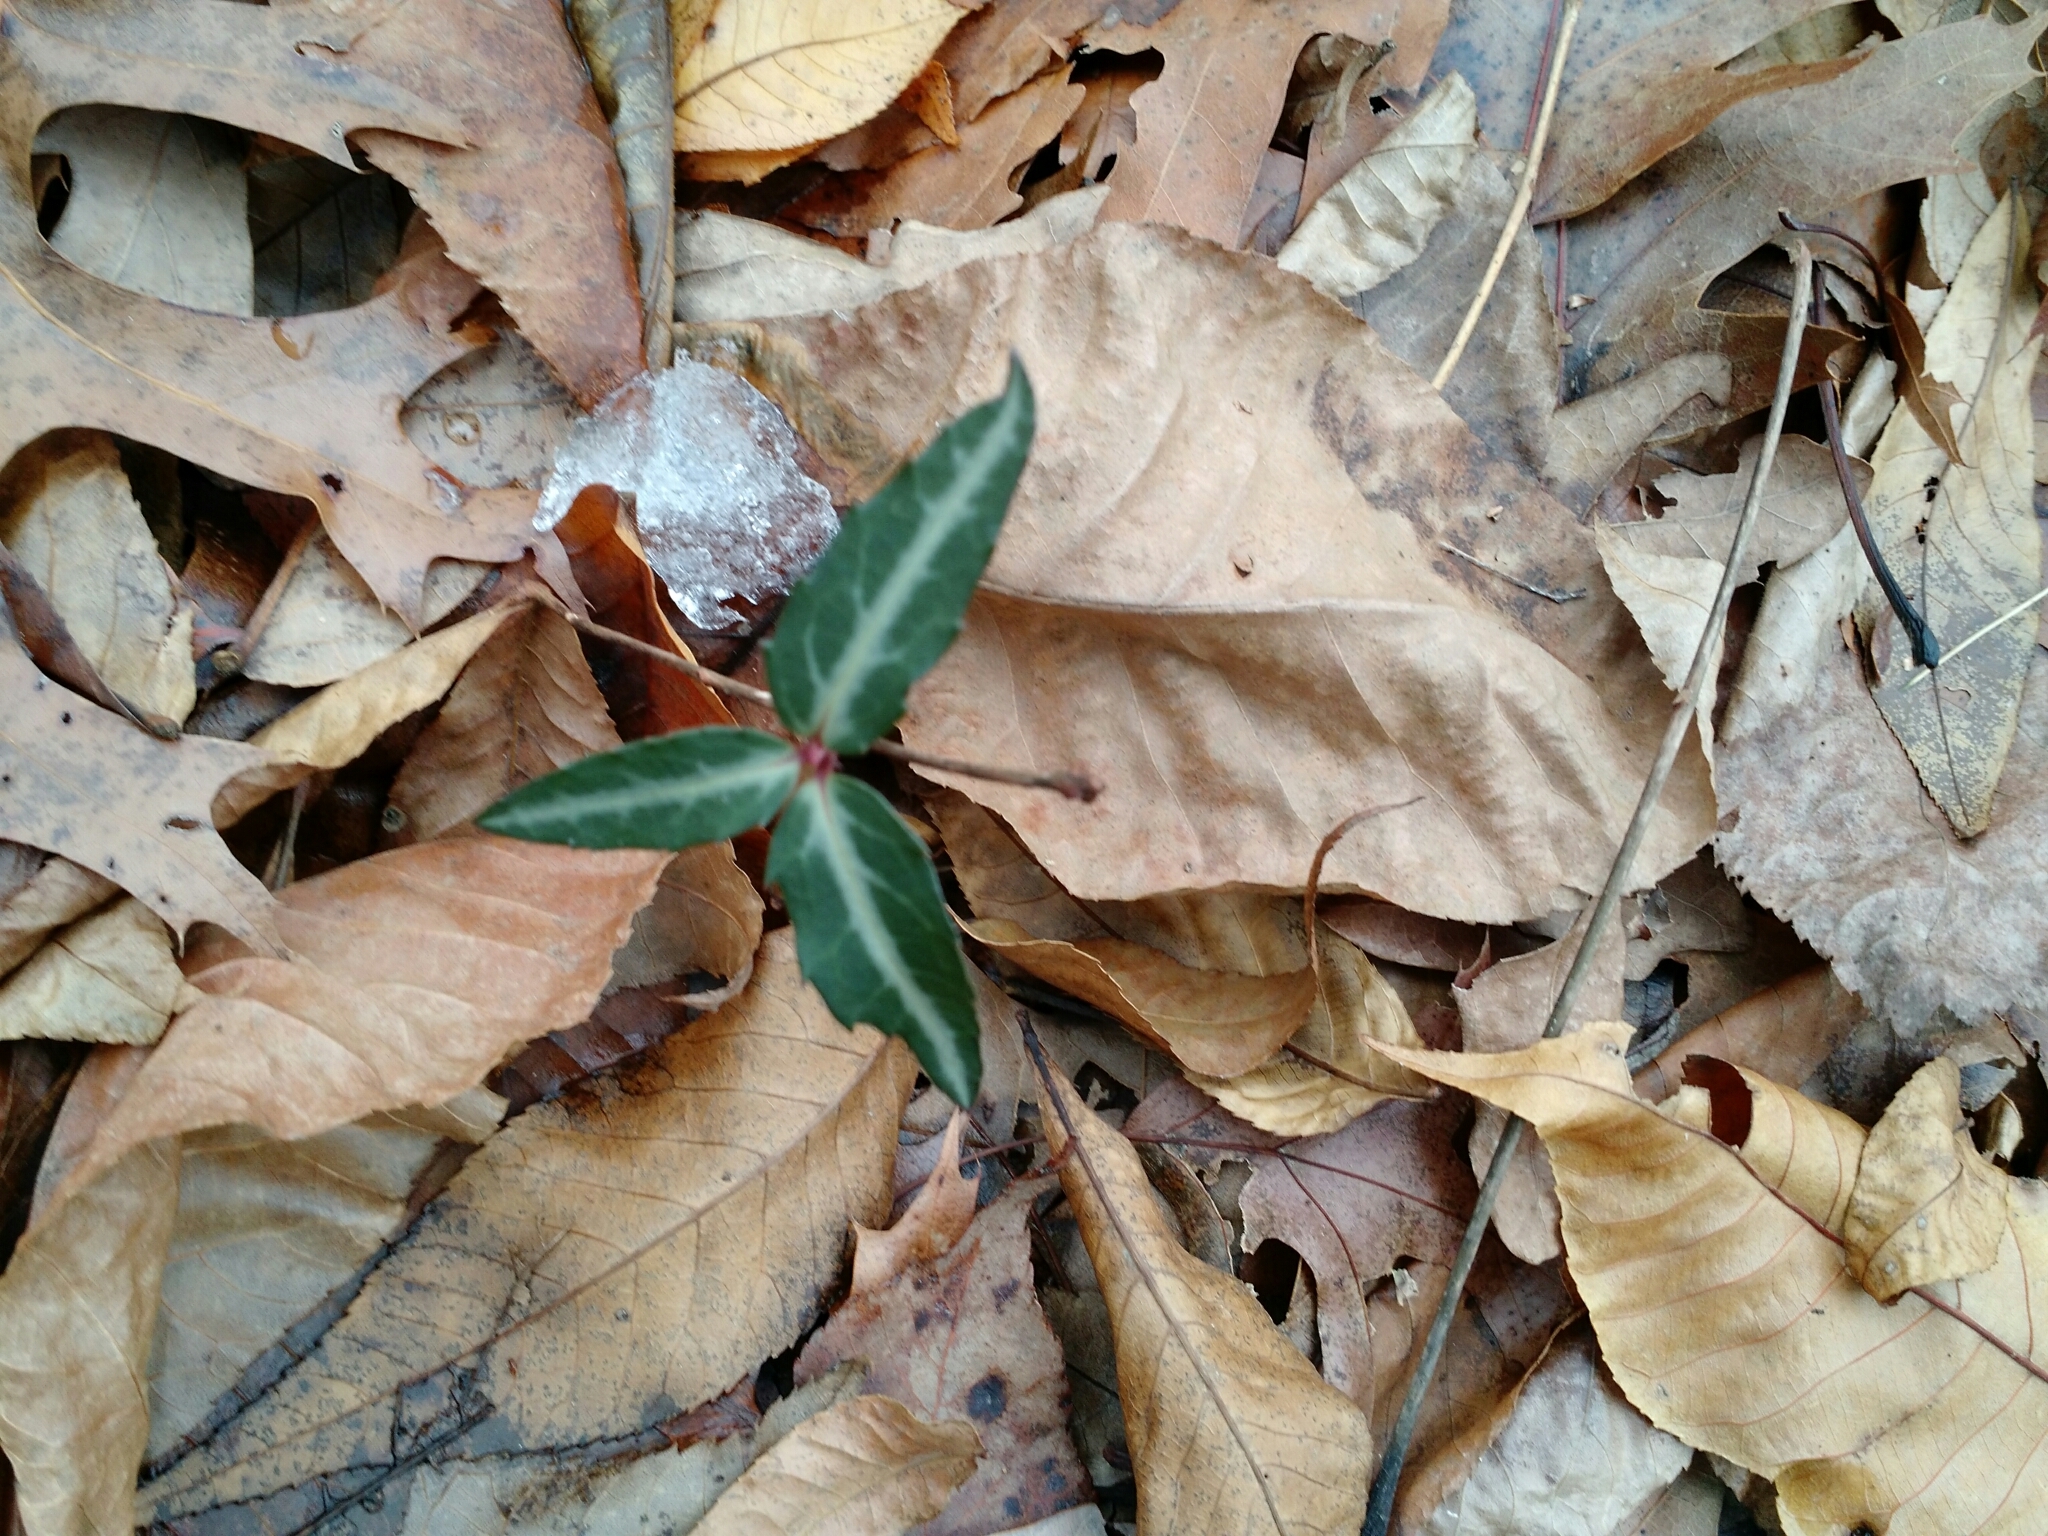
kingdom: Plantae
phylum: Tracheophyta
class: Magnoliopsida
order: Ericales
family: Ericaceae
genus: Chimaphila
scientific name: Chimaphila maculata
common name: Spotted pipsissewa
